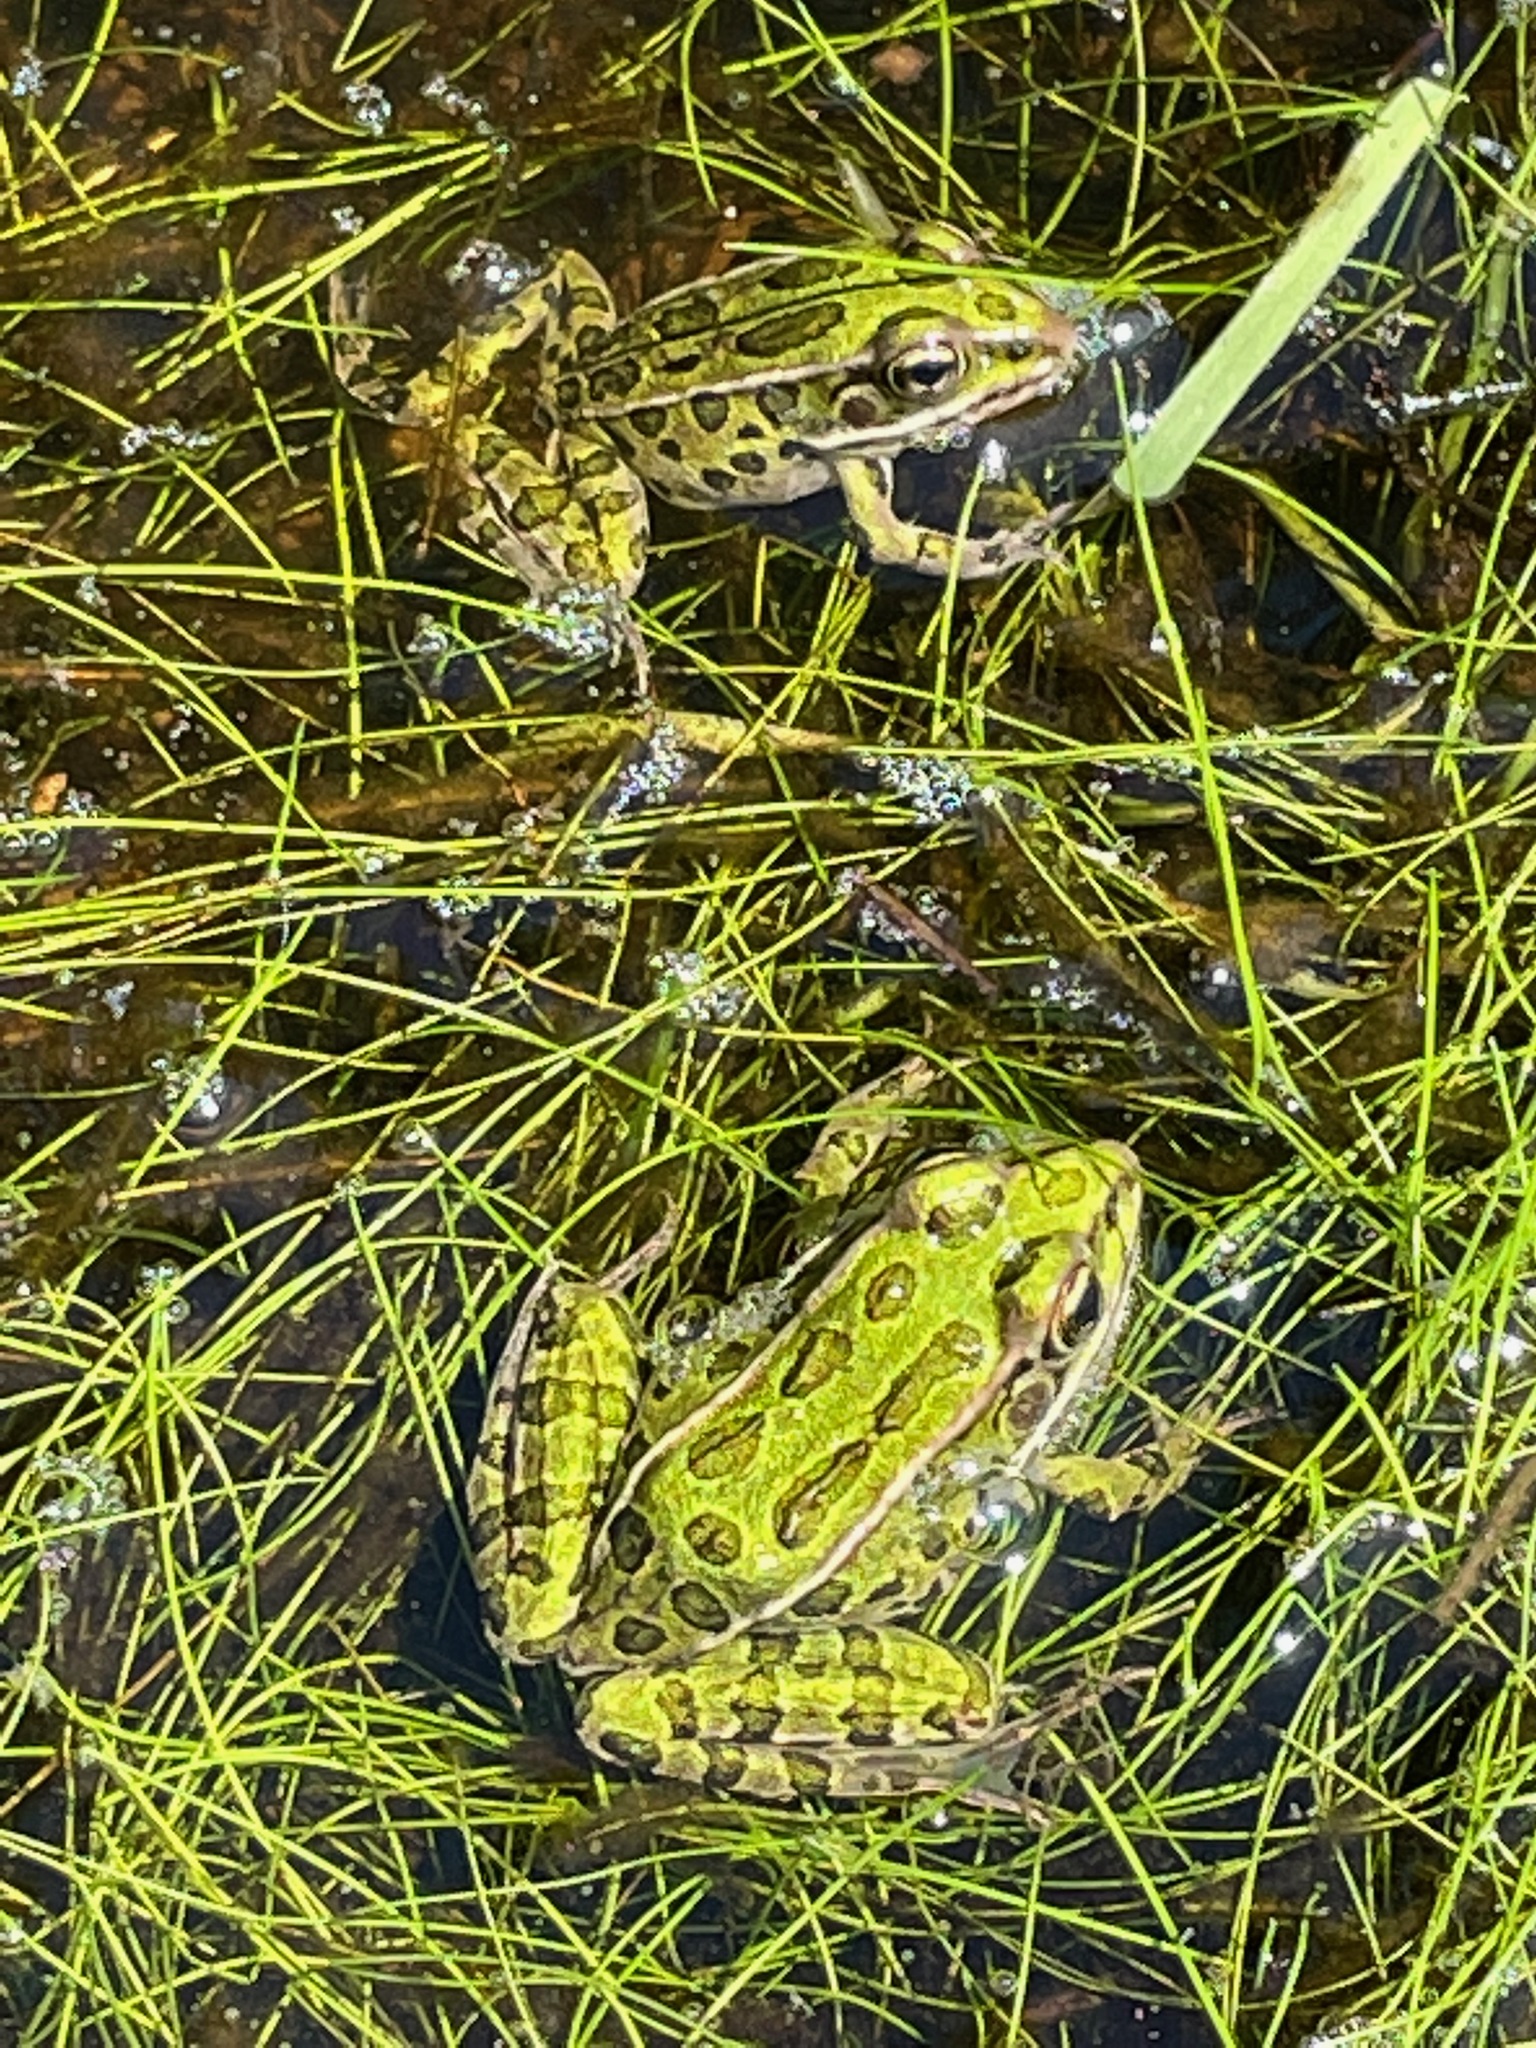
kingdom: Animalia
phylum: Chordata
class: Amphibia
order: Anura
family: Ranidae
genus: Lithobates
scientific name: Lithobates pipiens
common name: Northern leopard frog
